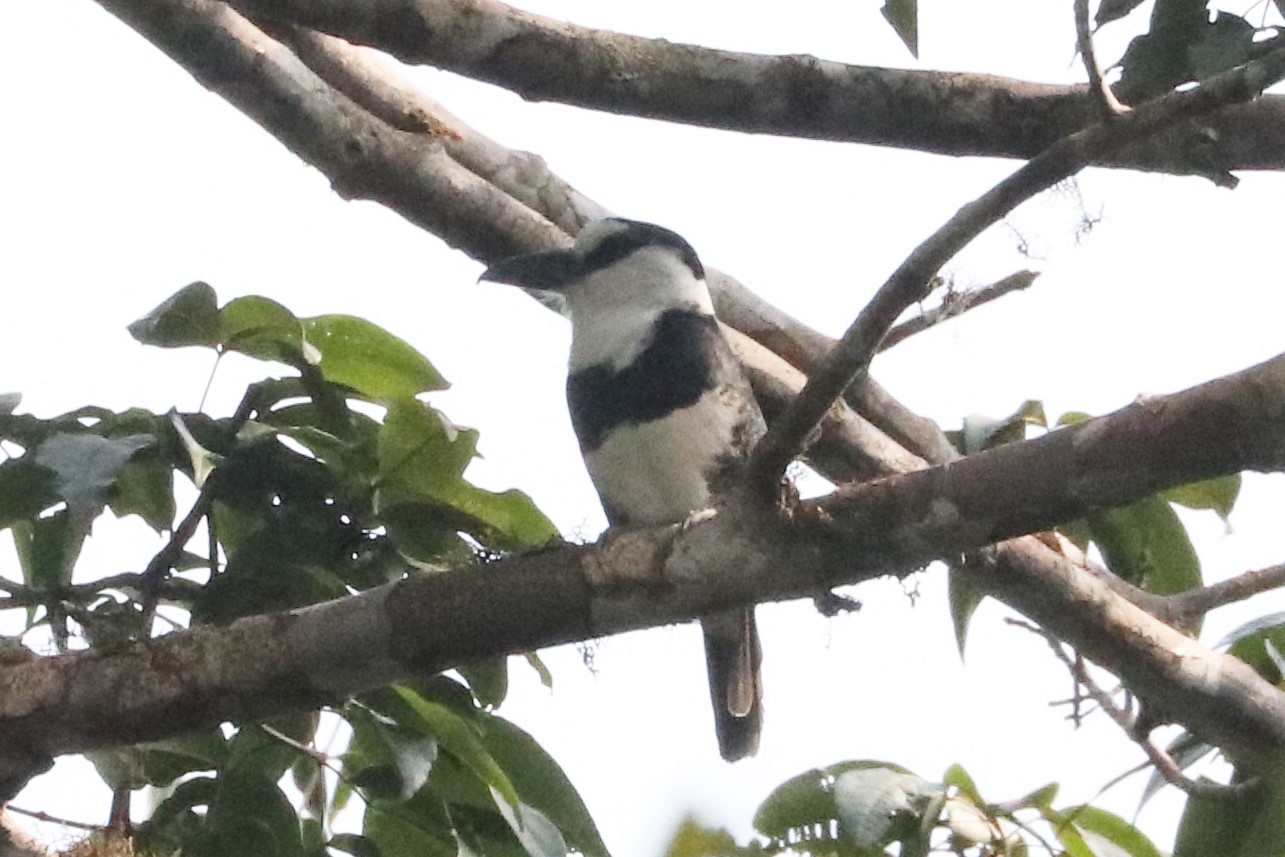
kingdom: Animalia
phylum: Chordata
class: Aves
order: Piciformes
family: Bucconidae
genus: Notharchus
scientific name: Notharchus hyperrhynchus
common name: White-necked puffbird
